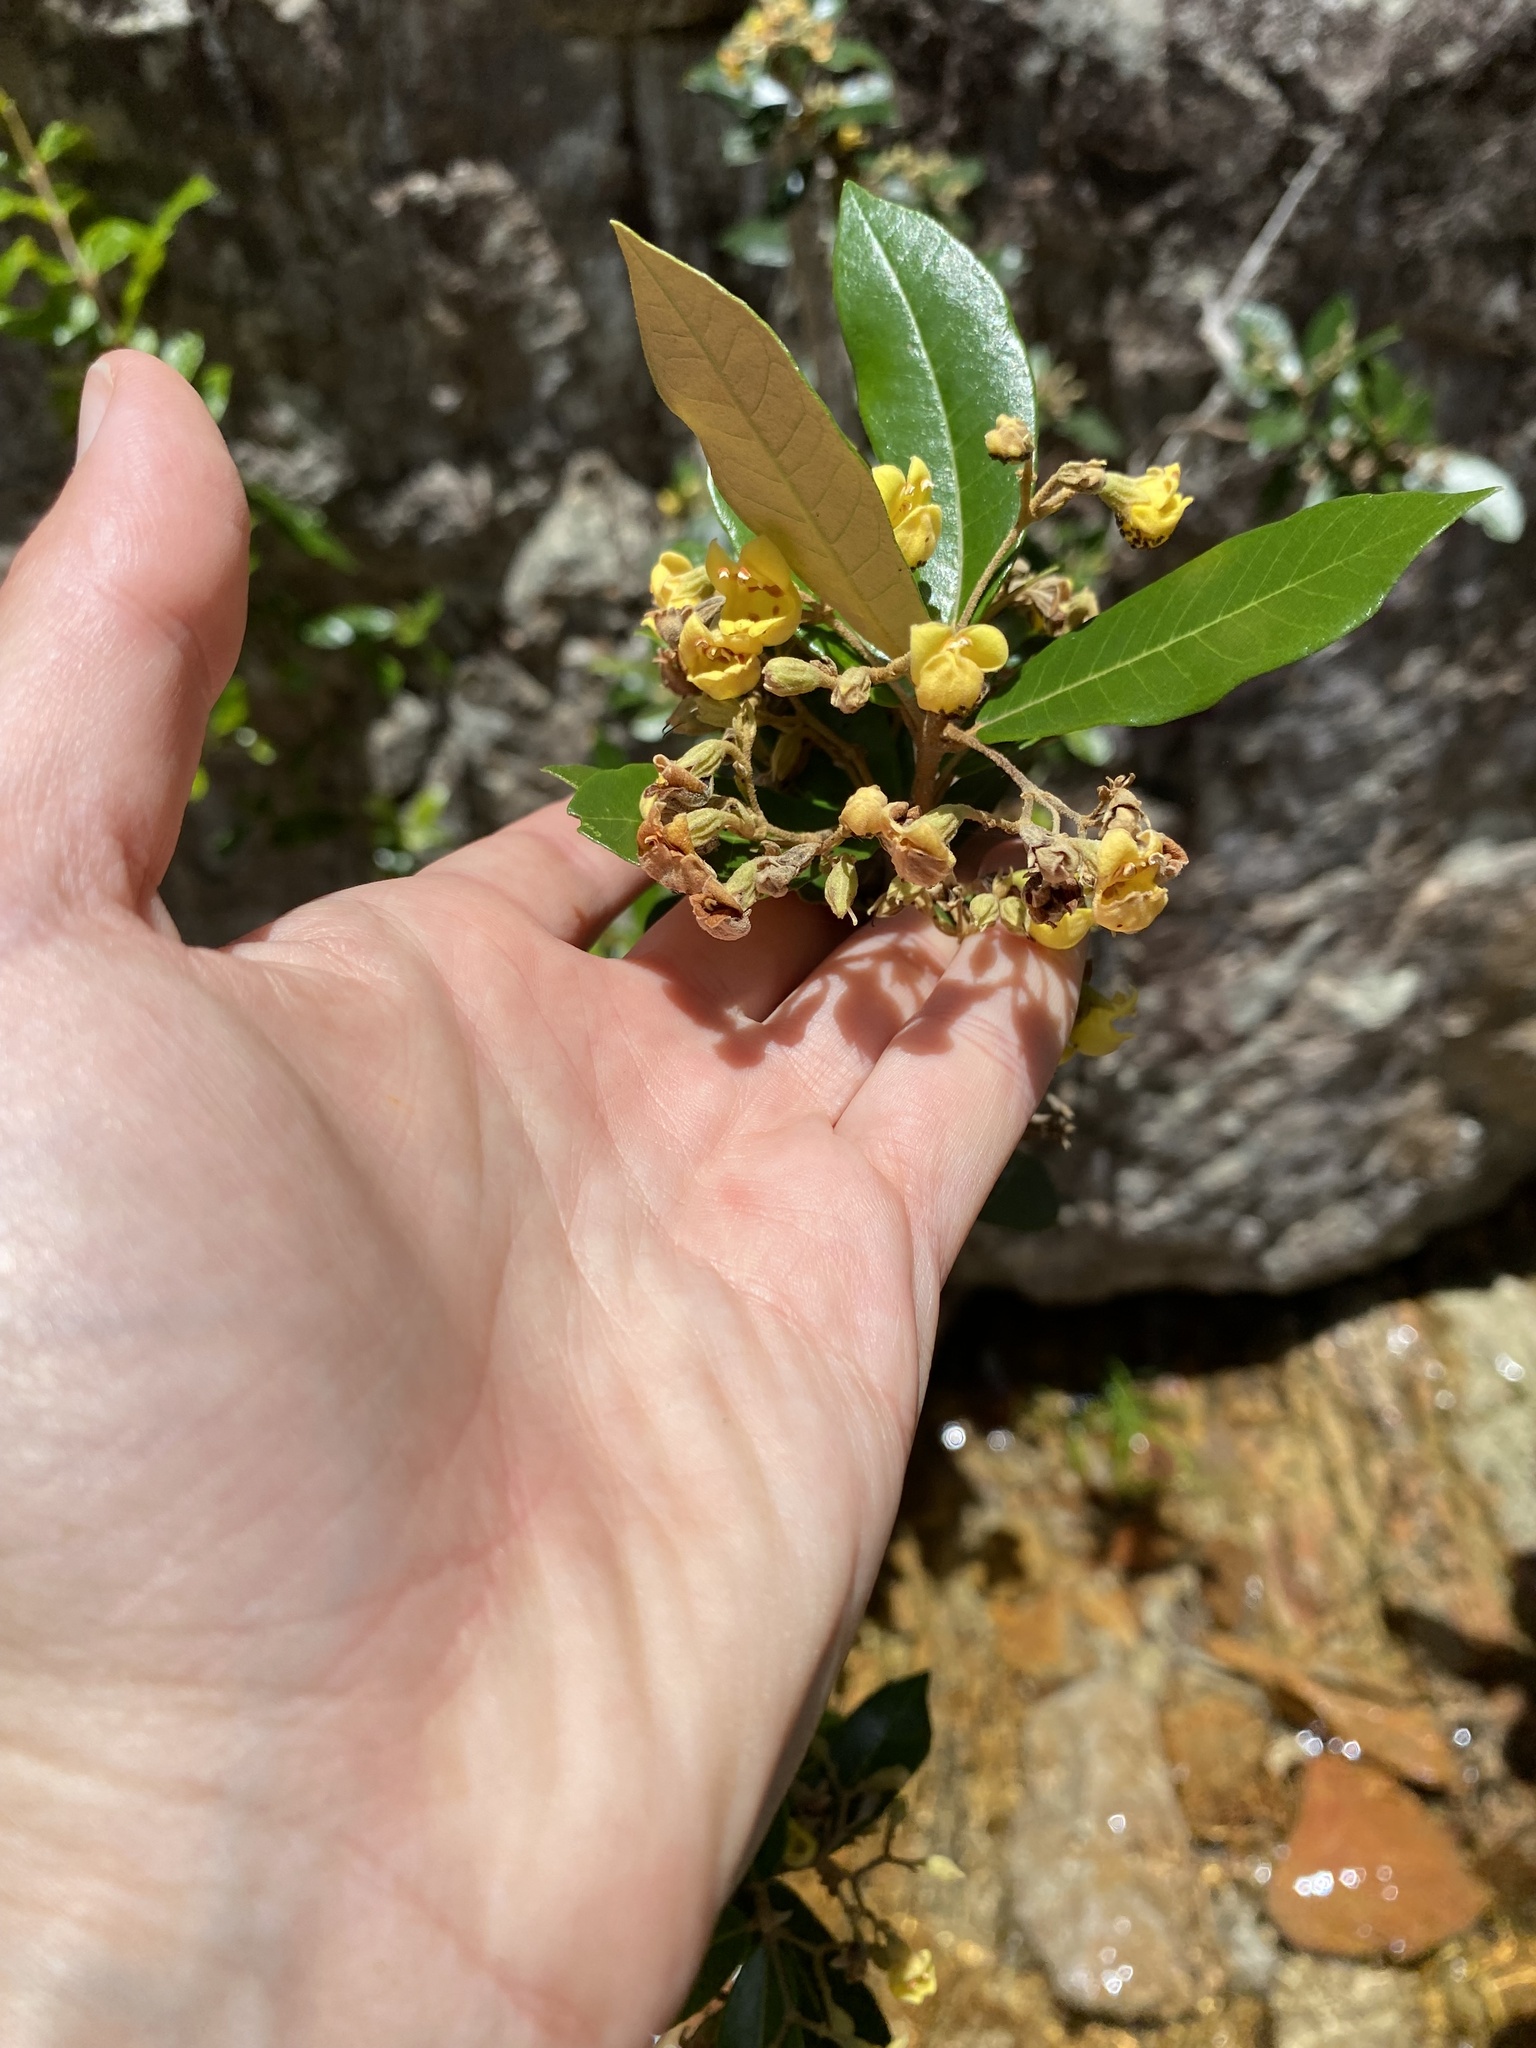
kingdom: Plantae
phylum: Tracheophyta
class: Magnoliopsida
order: Lamiales
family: Stilbaceae
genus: Anastrabe
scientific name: Anastrabe integerrima
